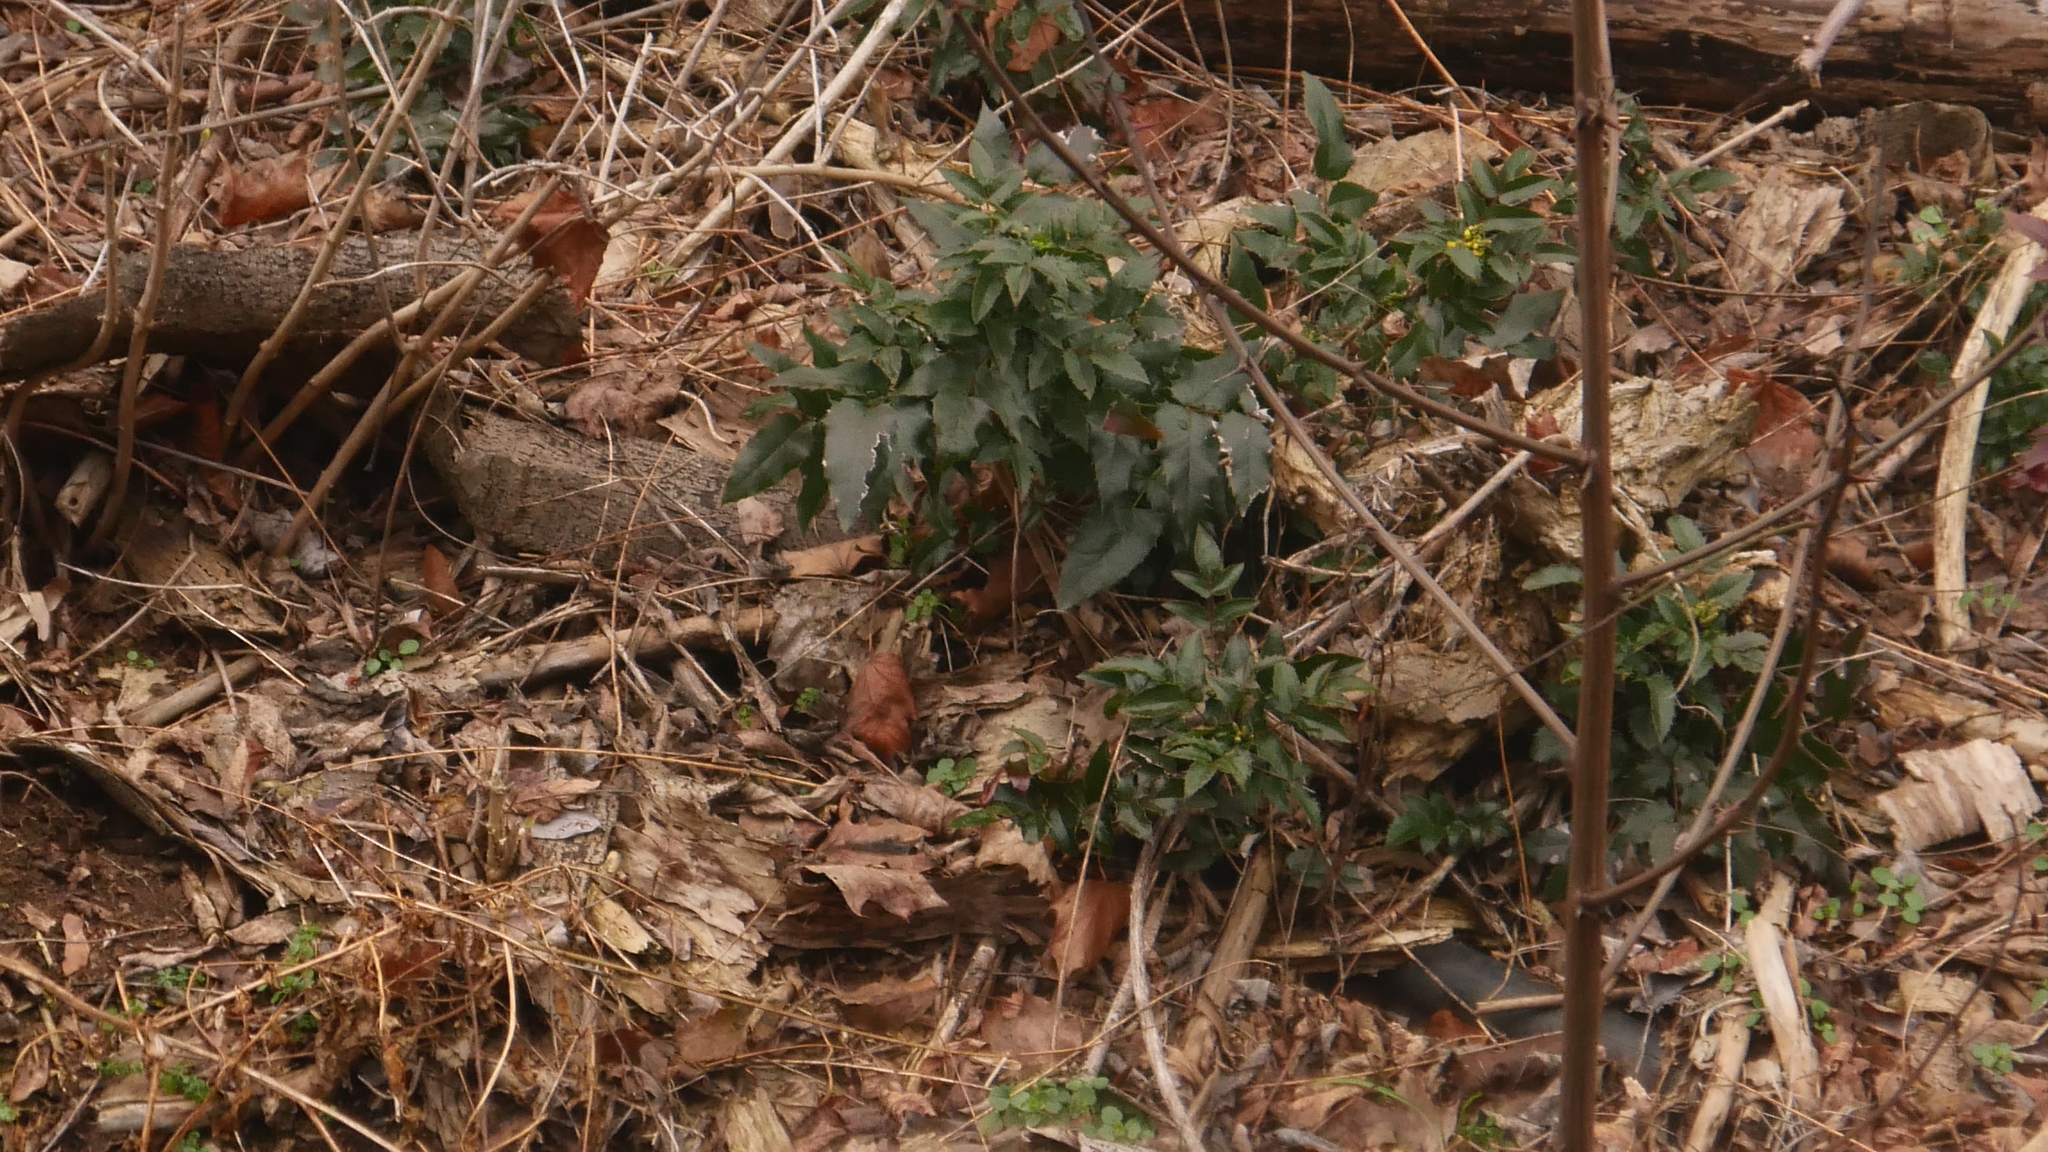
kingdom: Plantae
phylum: Tracheophyta
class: Magnoliopsida
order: Ranunculales
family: Berberidaceae
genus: Mahonia
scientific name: Mahonia aquifolium
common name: Oregon-grape
